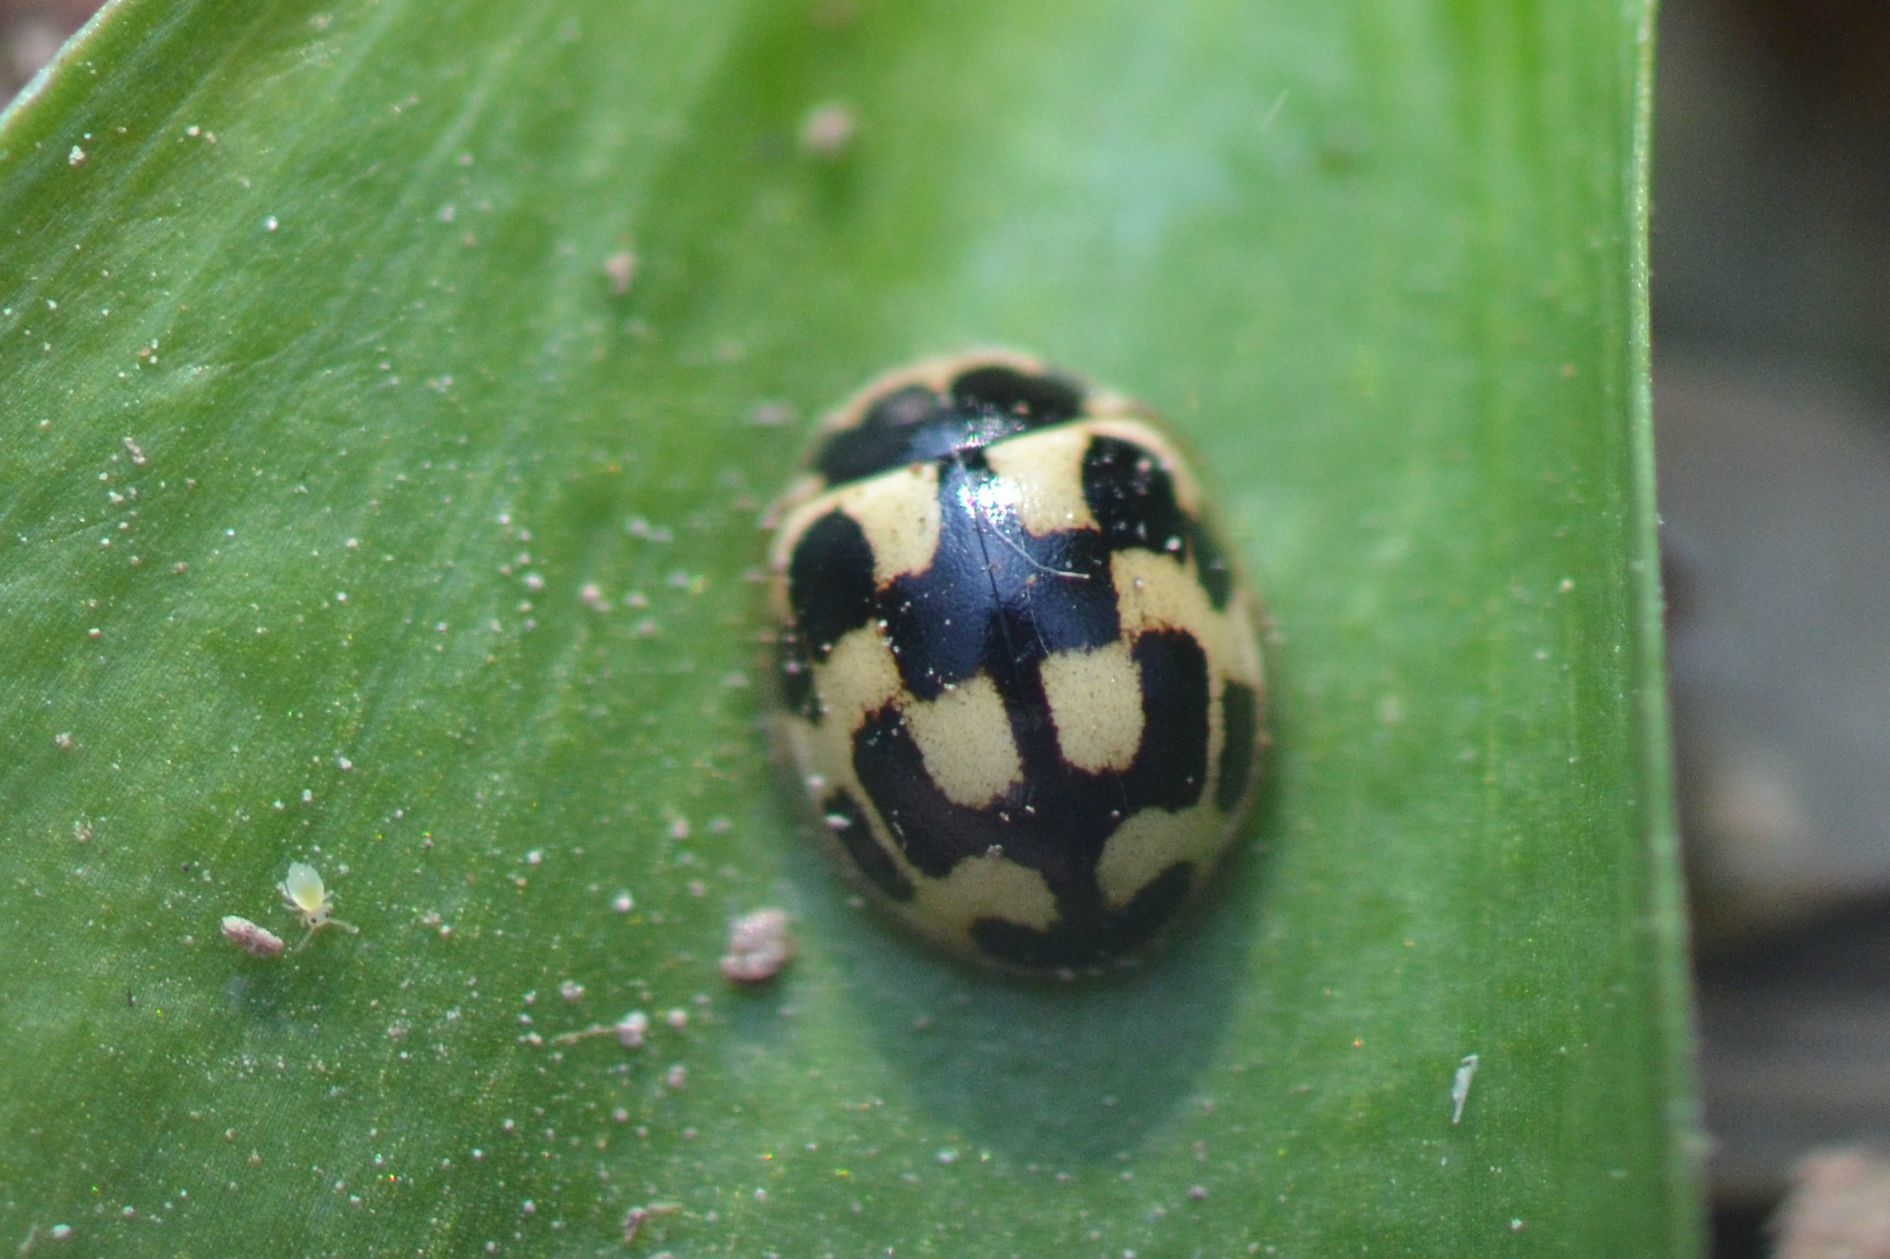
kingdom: Animalia
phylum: Arthropoda
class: Insecta
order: Coleoptera
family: Coccinellidae
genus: Propylaea
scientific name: Propylaea quatuordecimpunctata
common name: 14-spotted ladybird beetle
